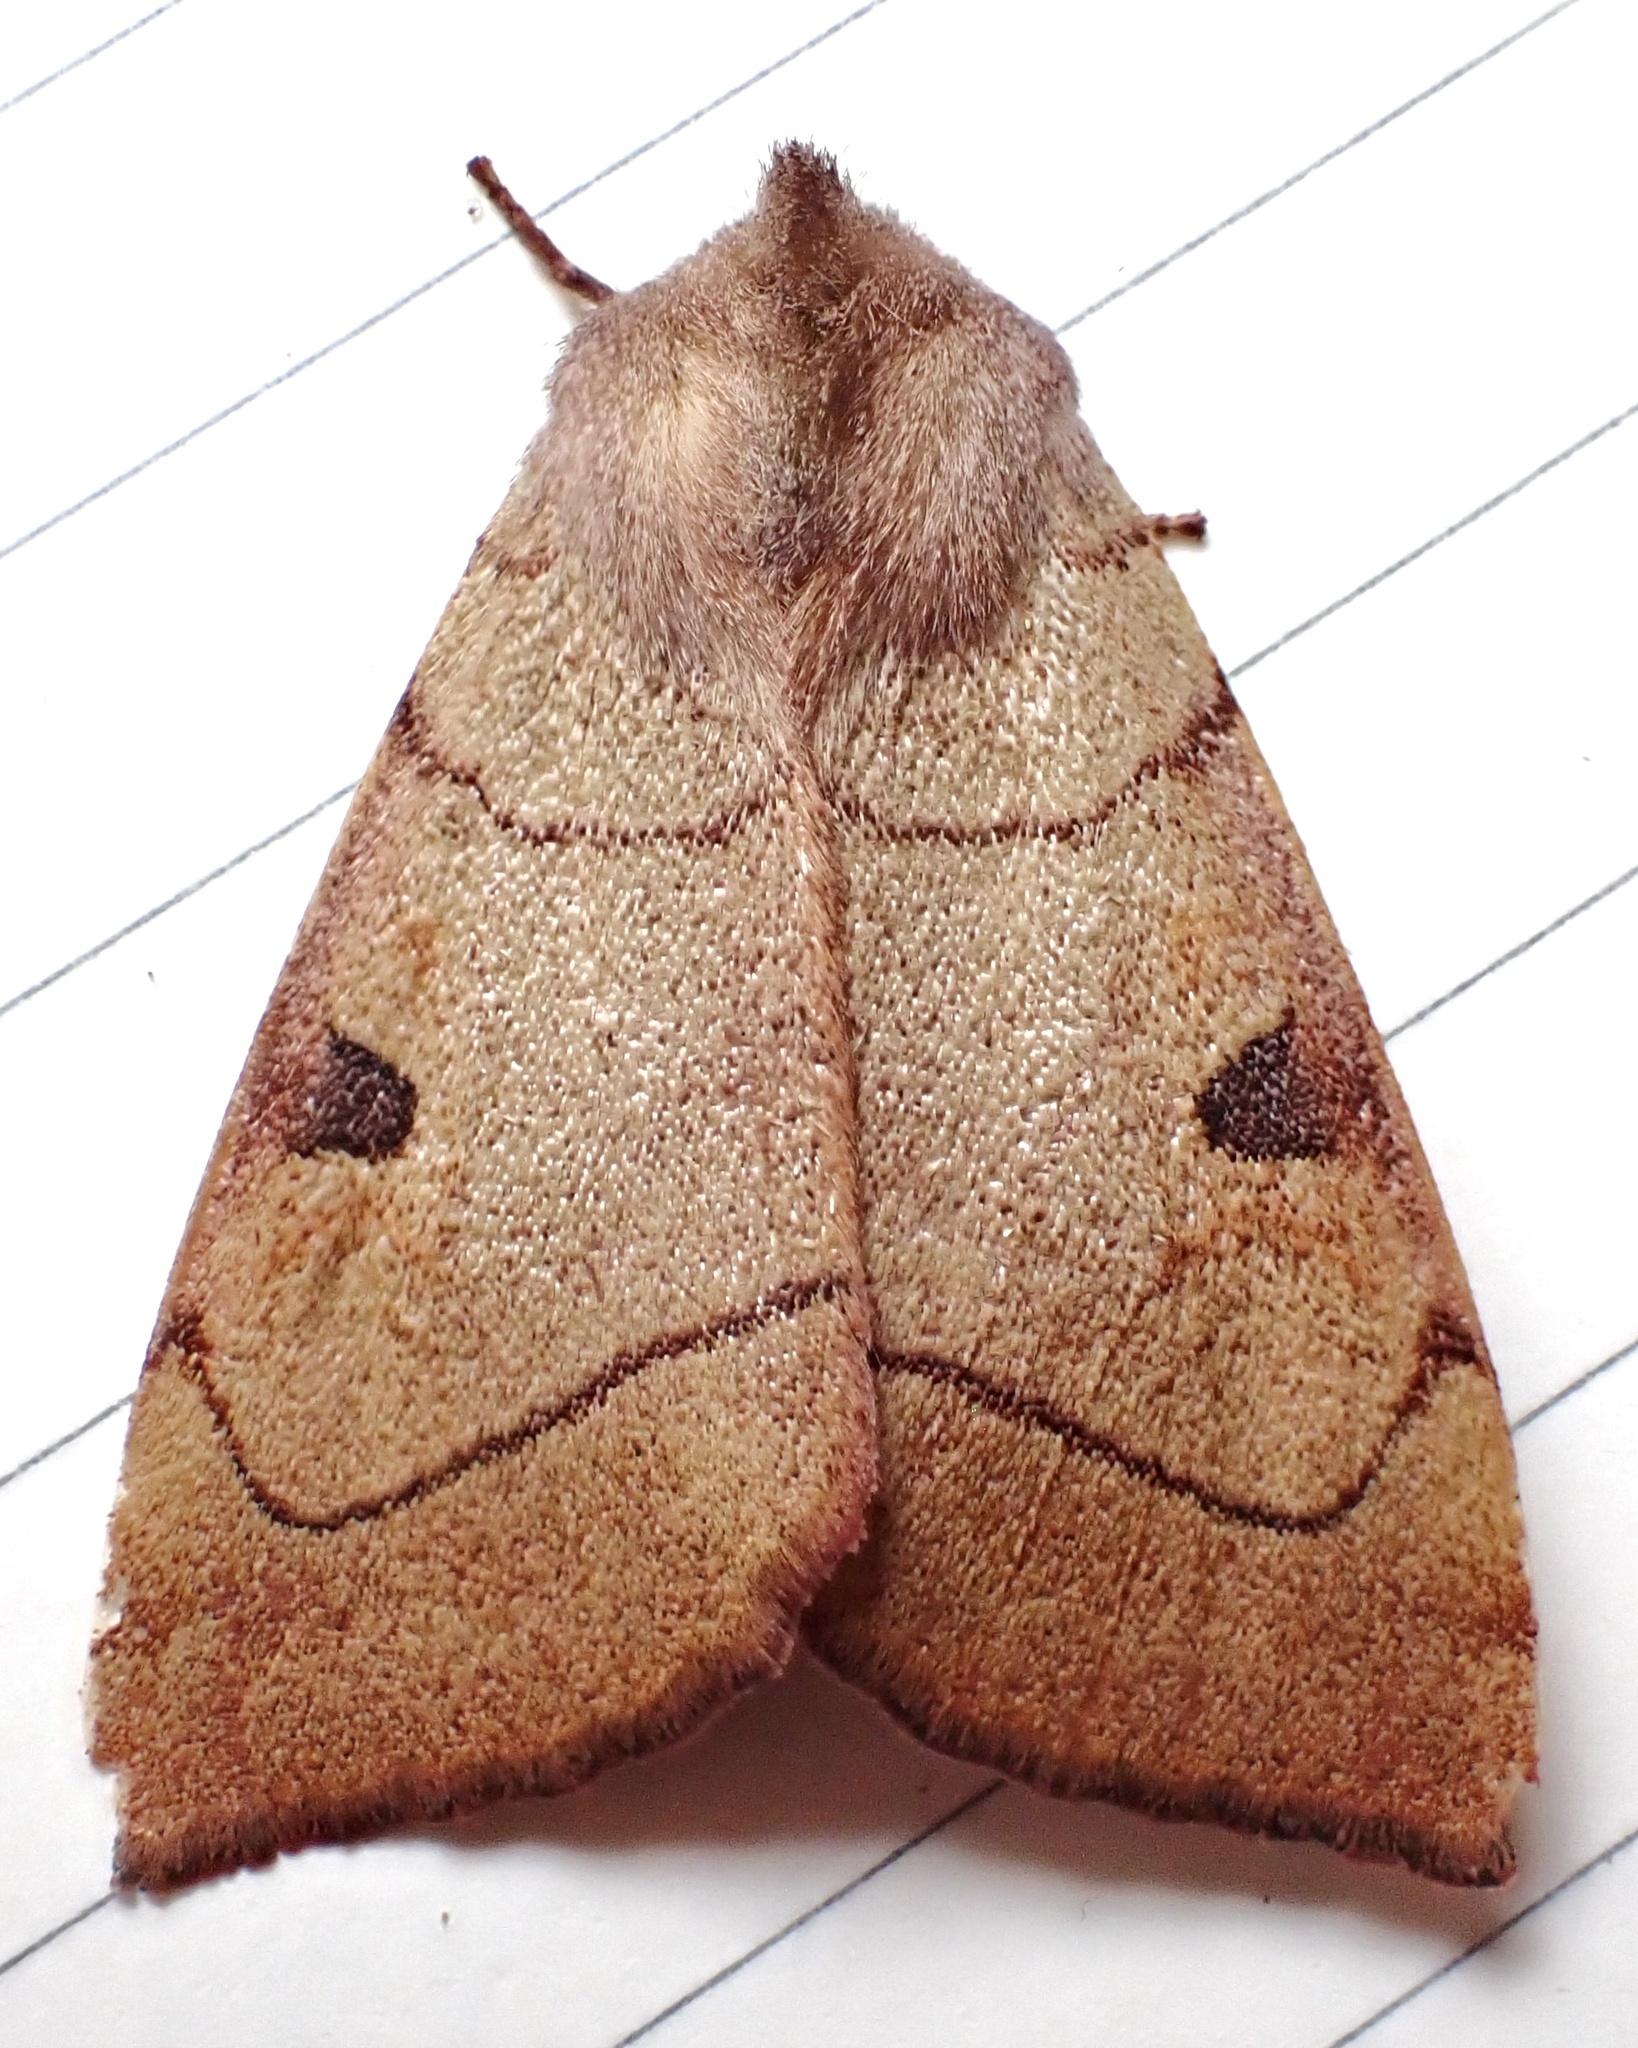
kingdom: Animalia
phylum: Arthropoda
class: Insecta
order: Lepidoptera
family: Noctuidae
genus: Choephora
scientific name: Choephora fungorum
